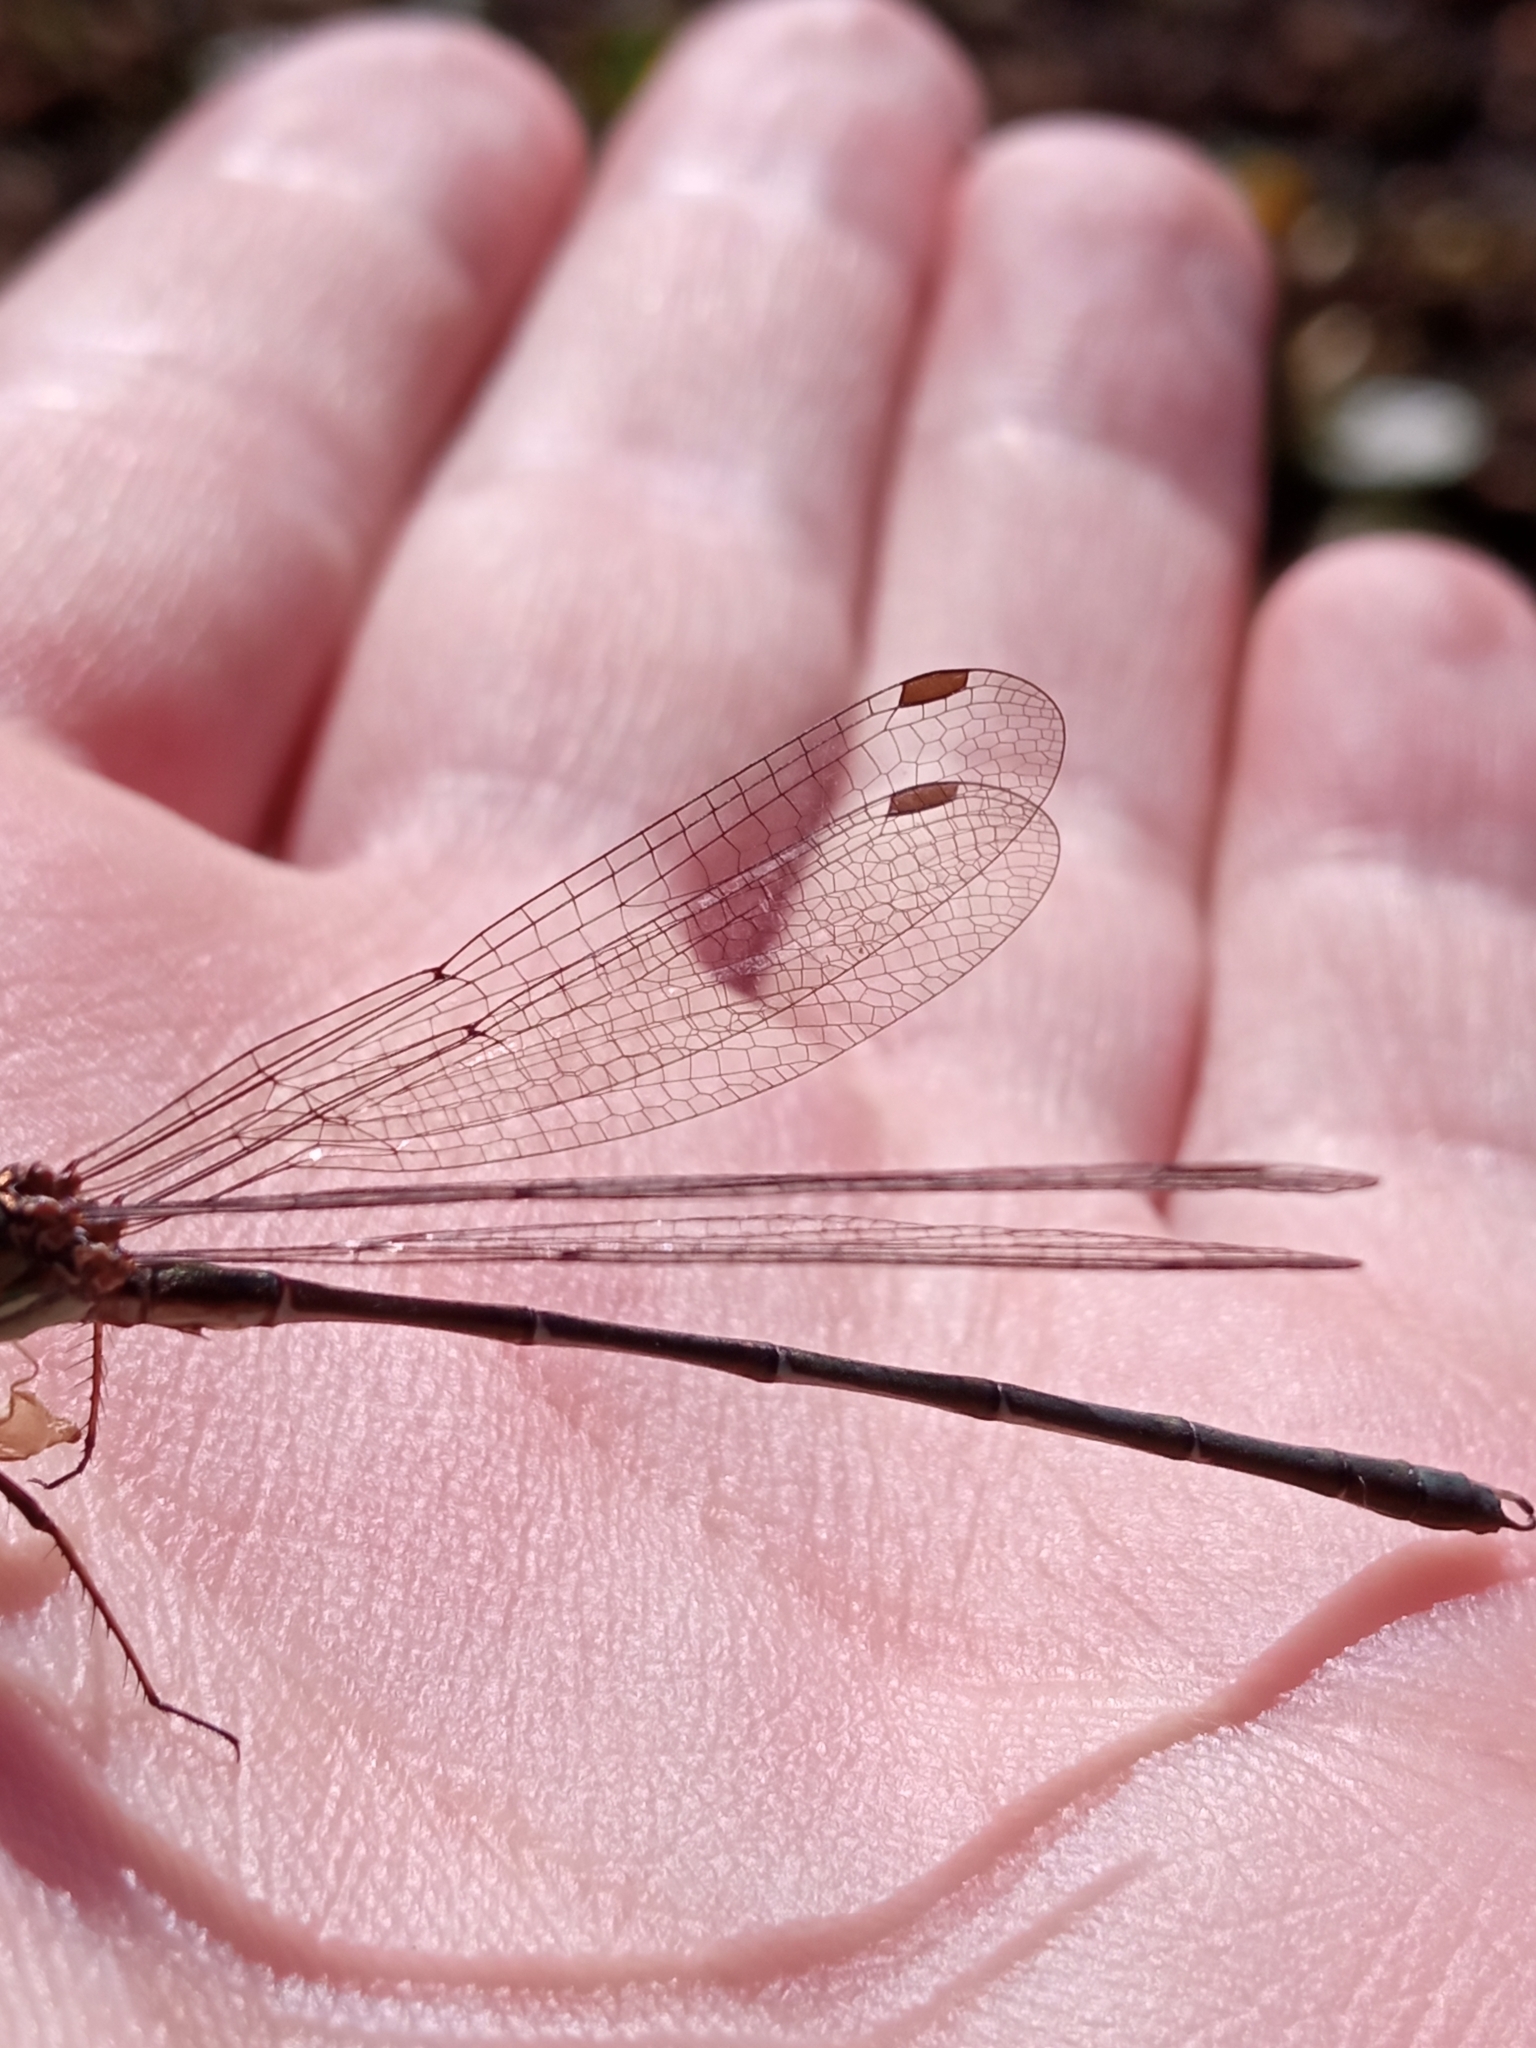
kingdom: Animalia
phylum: Arthropoda
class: Insecta
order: Odonata
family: Lestidae
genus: Chalcolestes
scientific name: Chalcolestes viridis
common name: Green emerald damselfly
